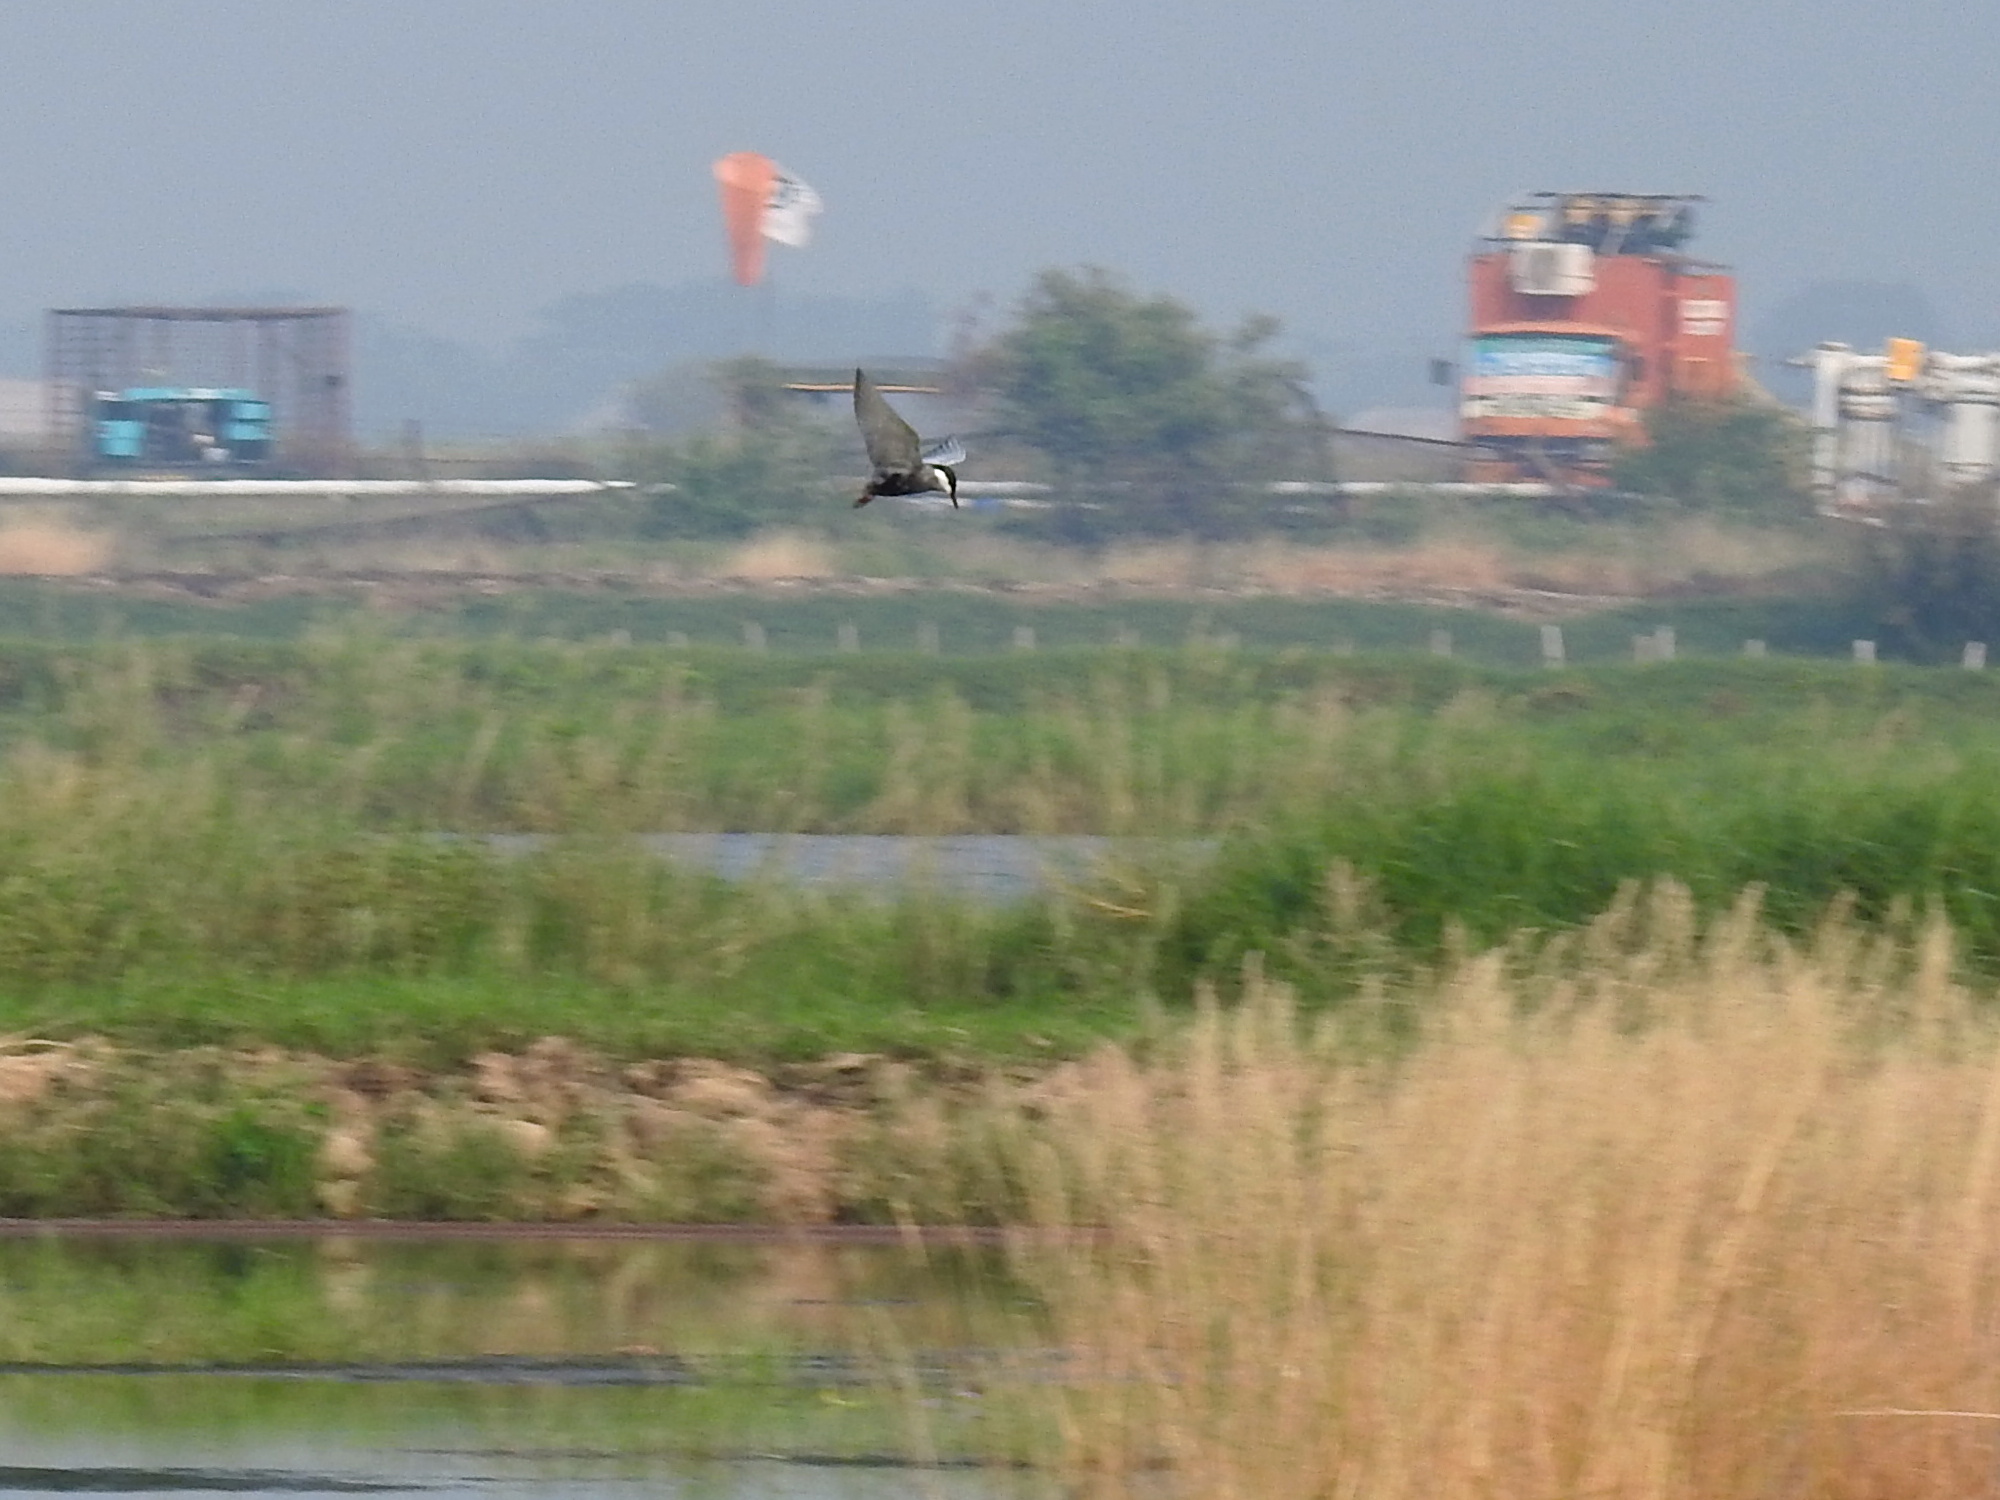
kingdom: Animalia
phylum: Chordata
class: Aves
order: Charadriiformes
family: Laridae
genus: Chlidonias
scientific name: Chlidonias hybrida
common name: Whiskered tern
